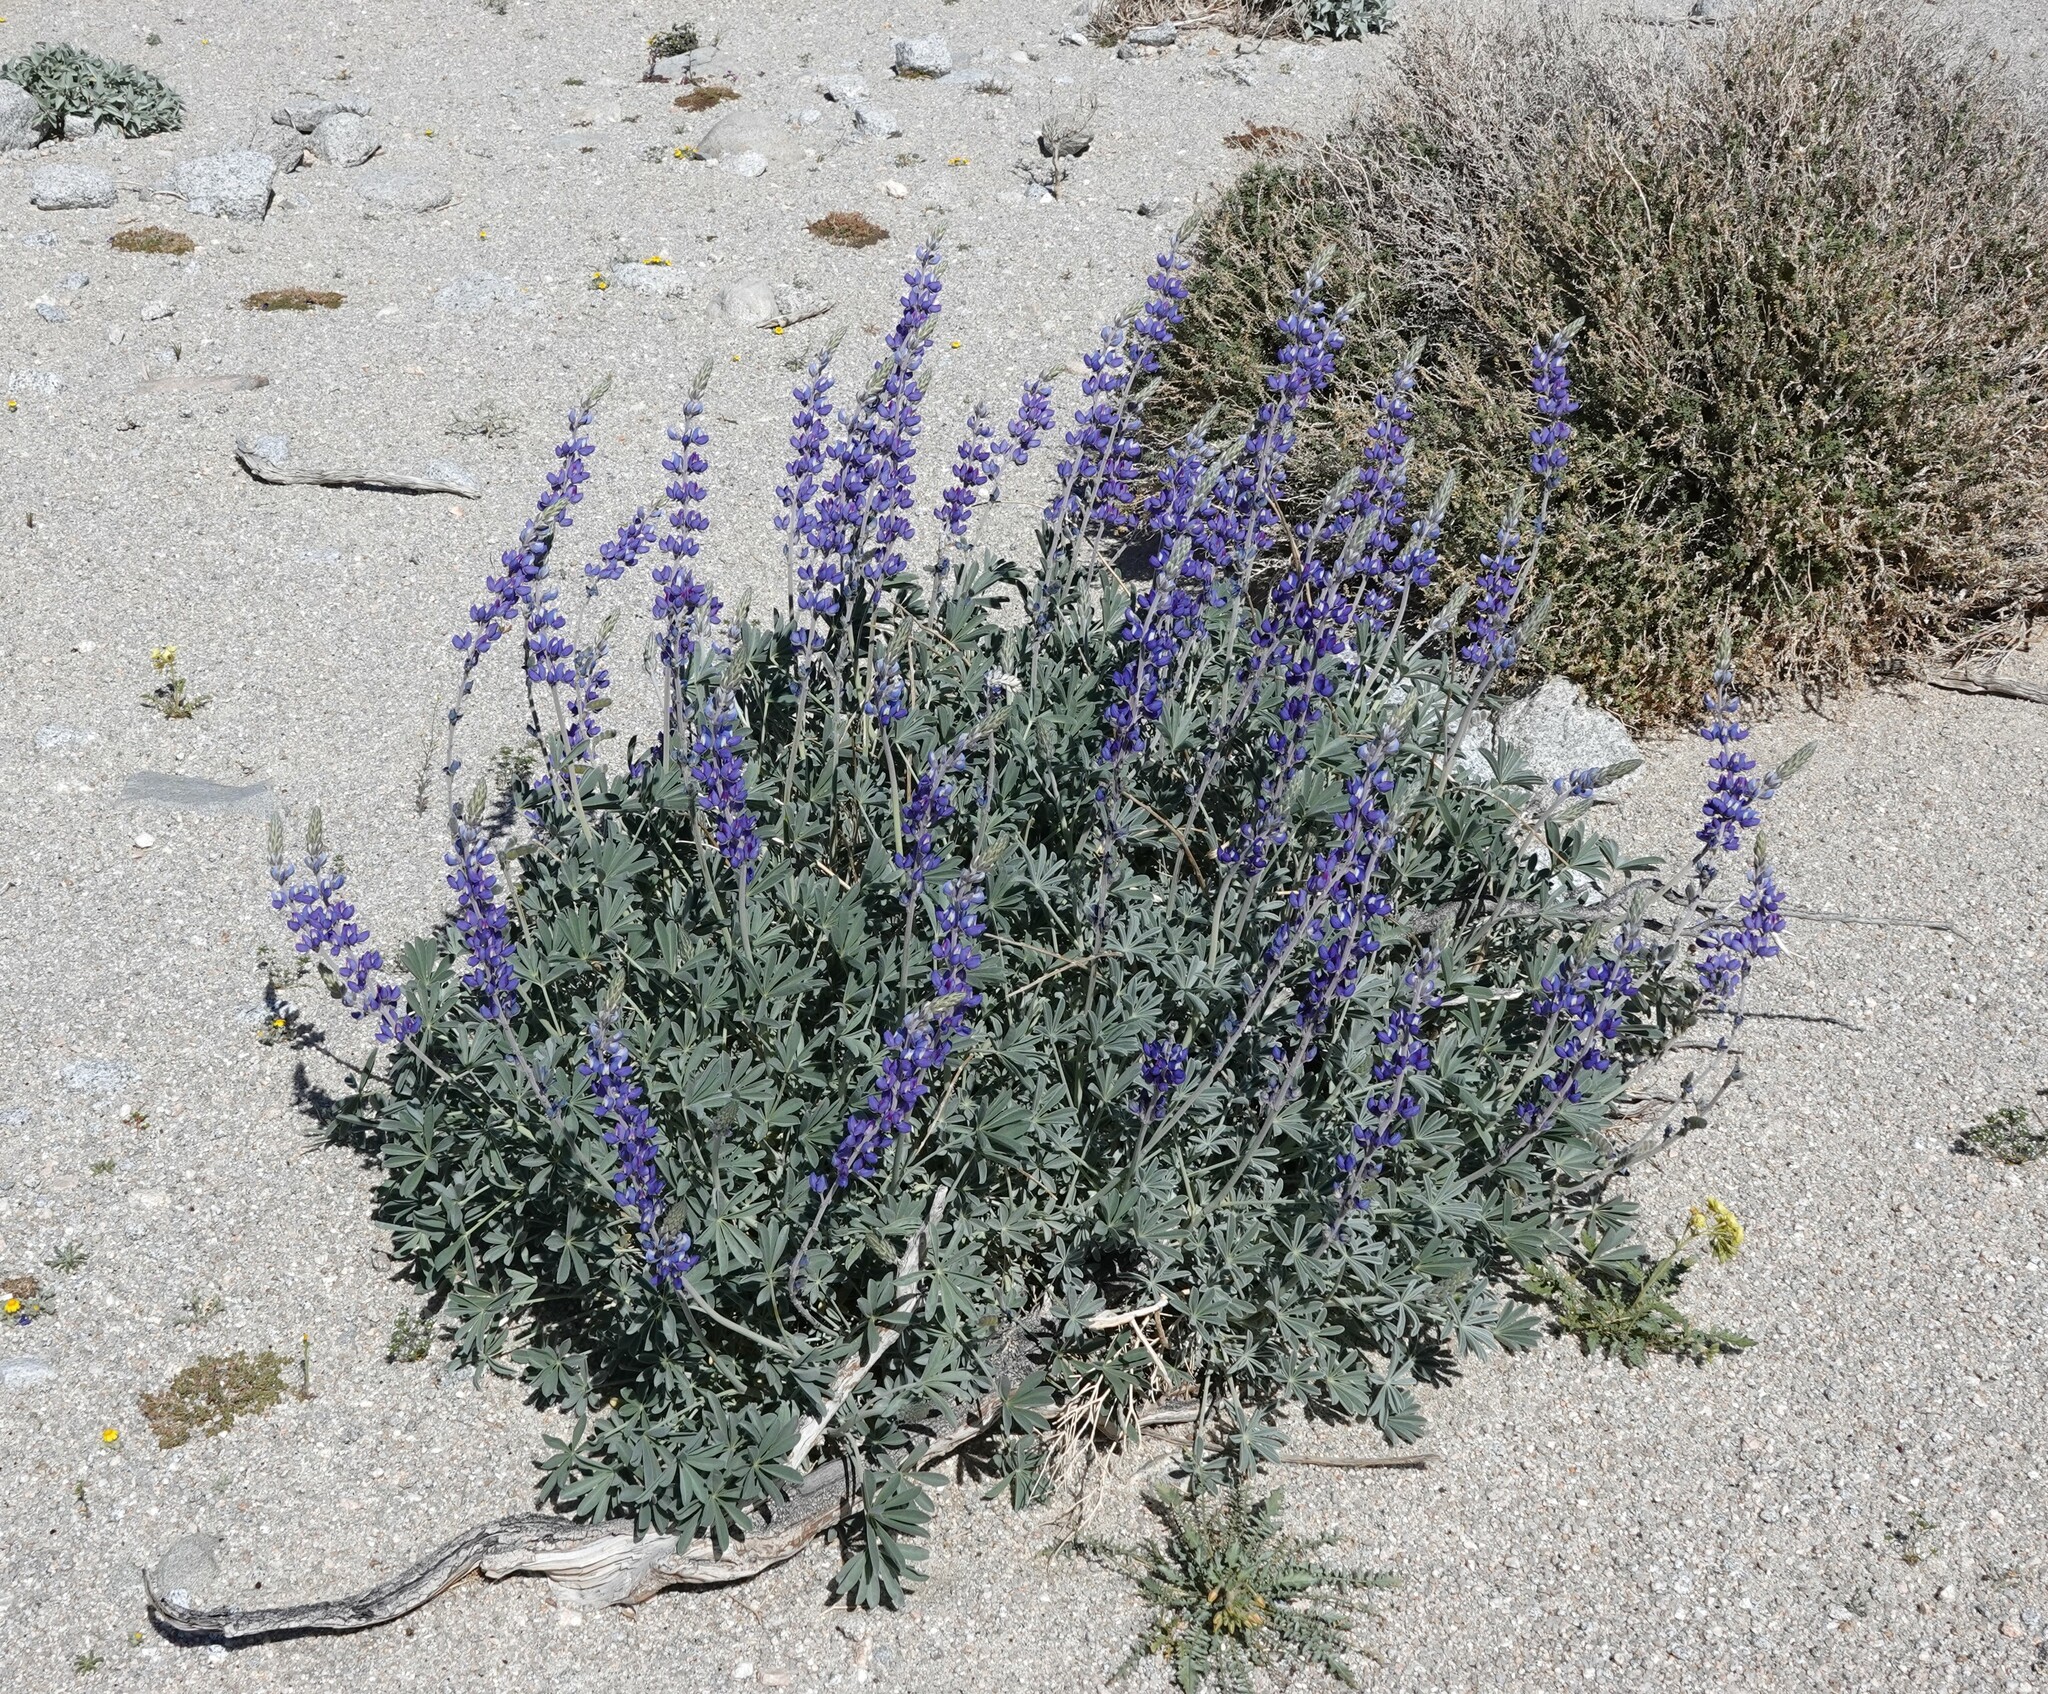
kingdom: Plantae
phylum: Tracheophyta
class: Magnoliopsida
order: Fabales
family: Fabaceae
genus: Lupinus
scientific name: Lupinus excubitus
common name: Grape soda lupine
